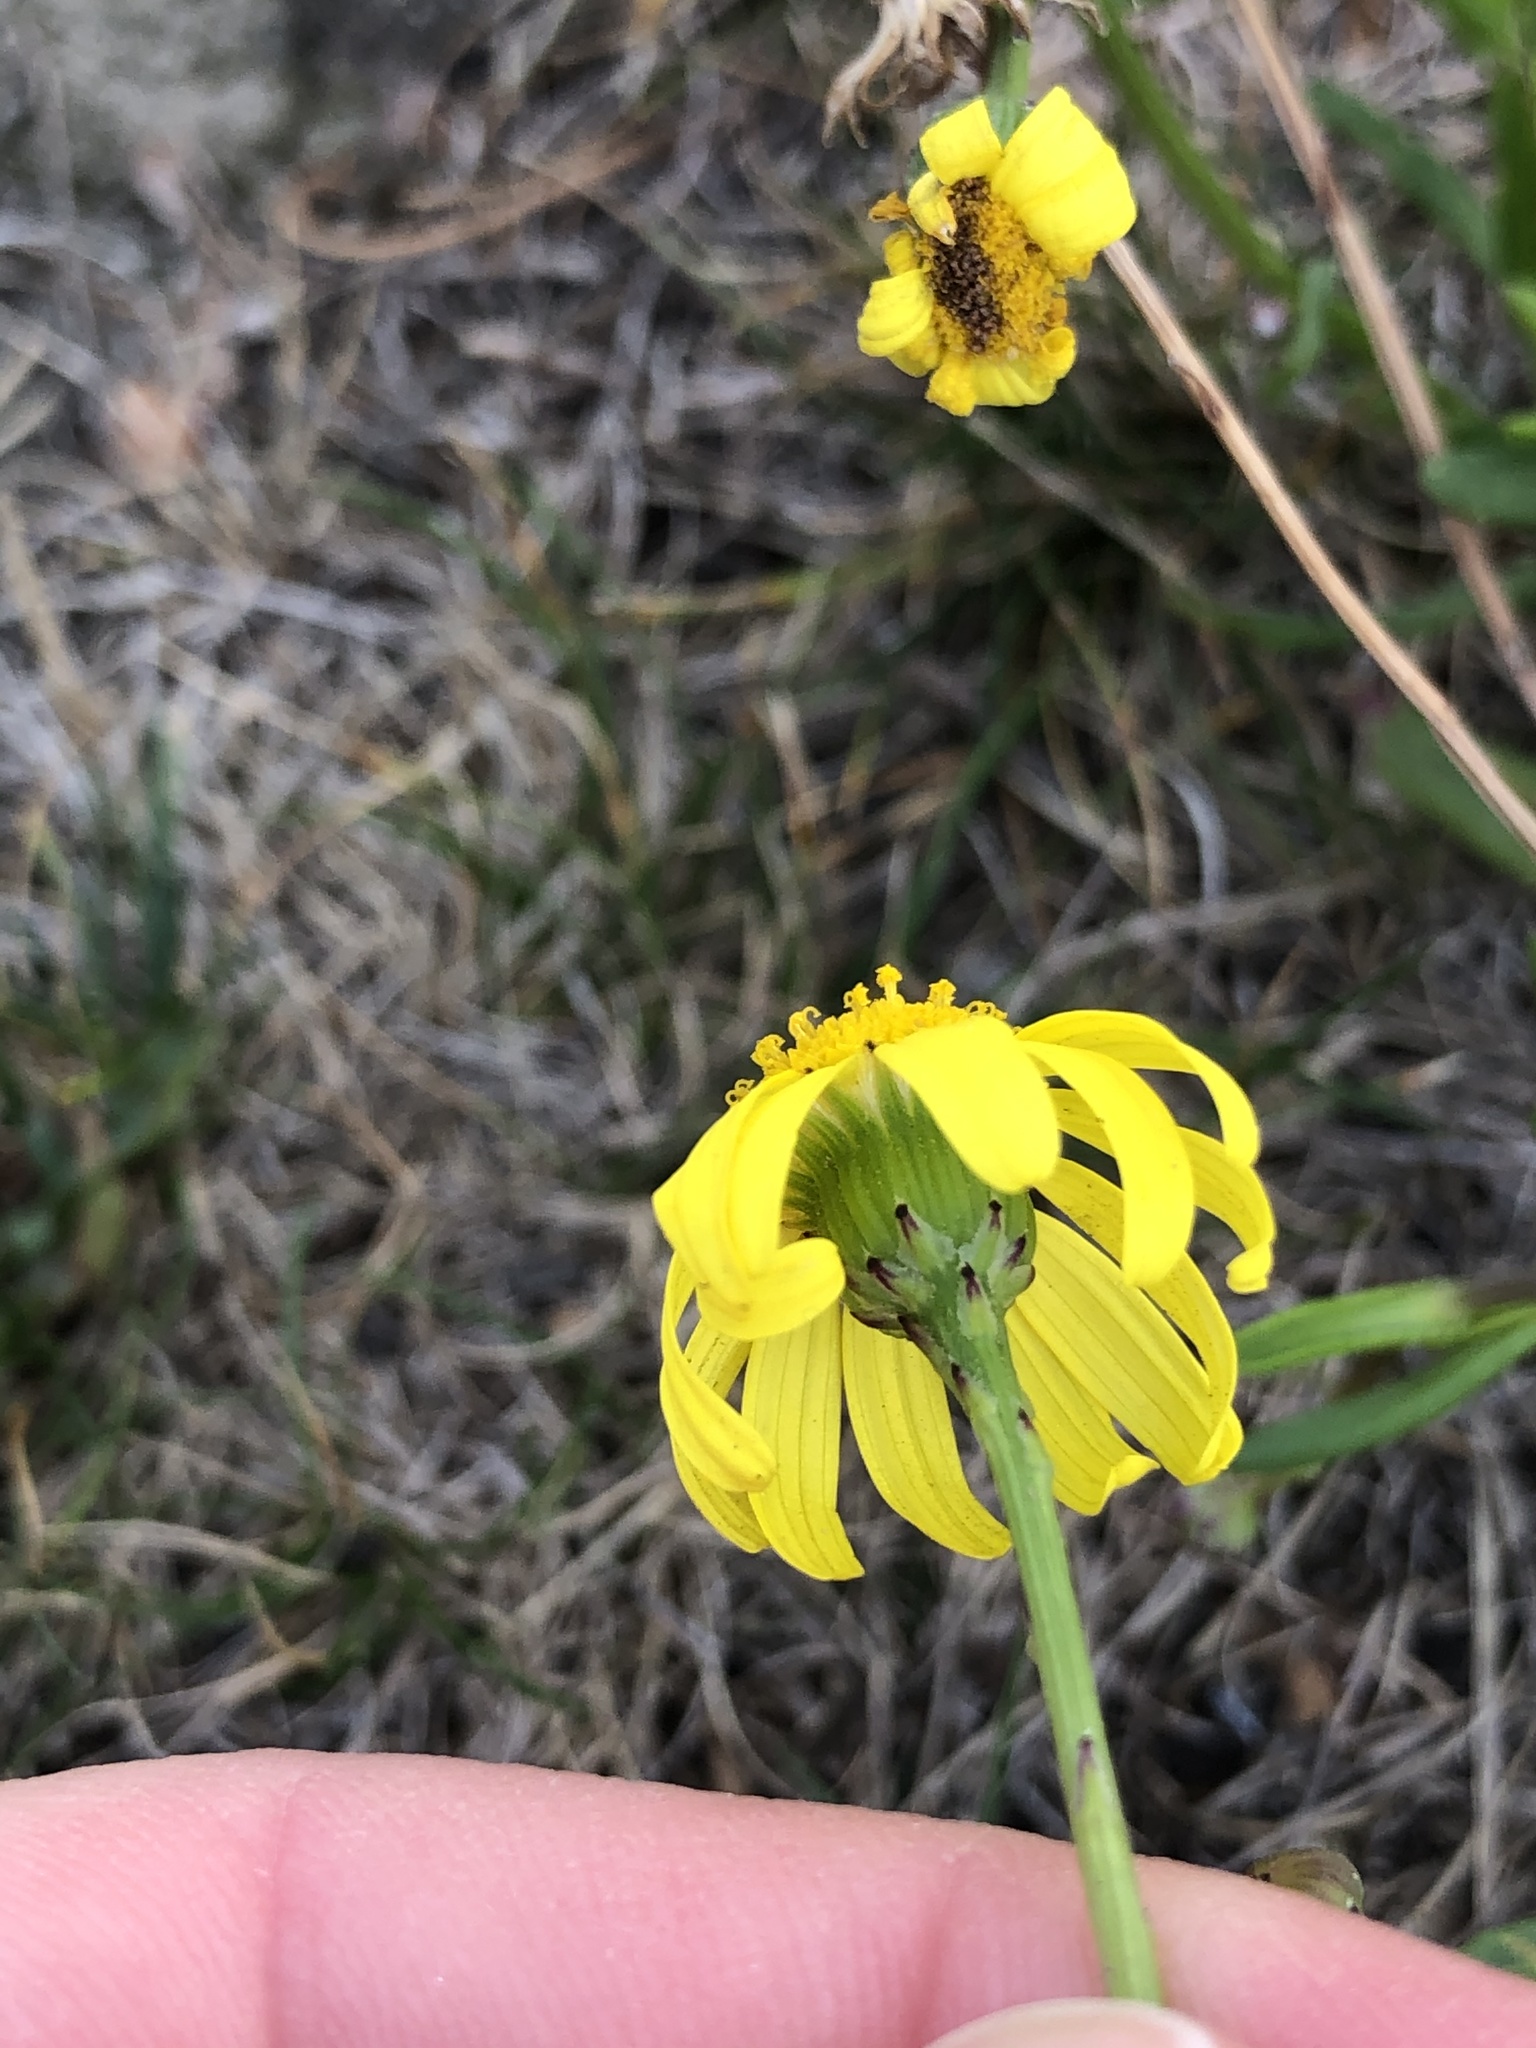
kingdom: Plantae
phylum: Tracheophyta
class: Magnoliopsida
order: Asterales
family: Asteraceae
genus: Senecio
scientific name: Senecio skirrhodon
